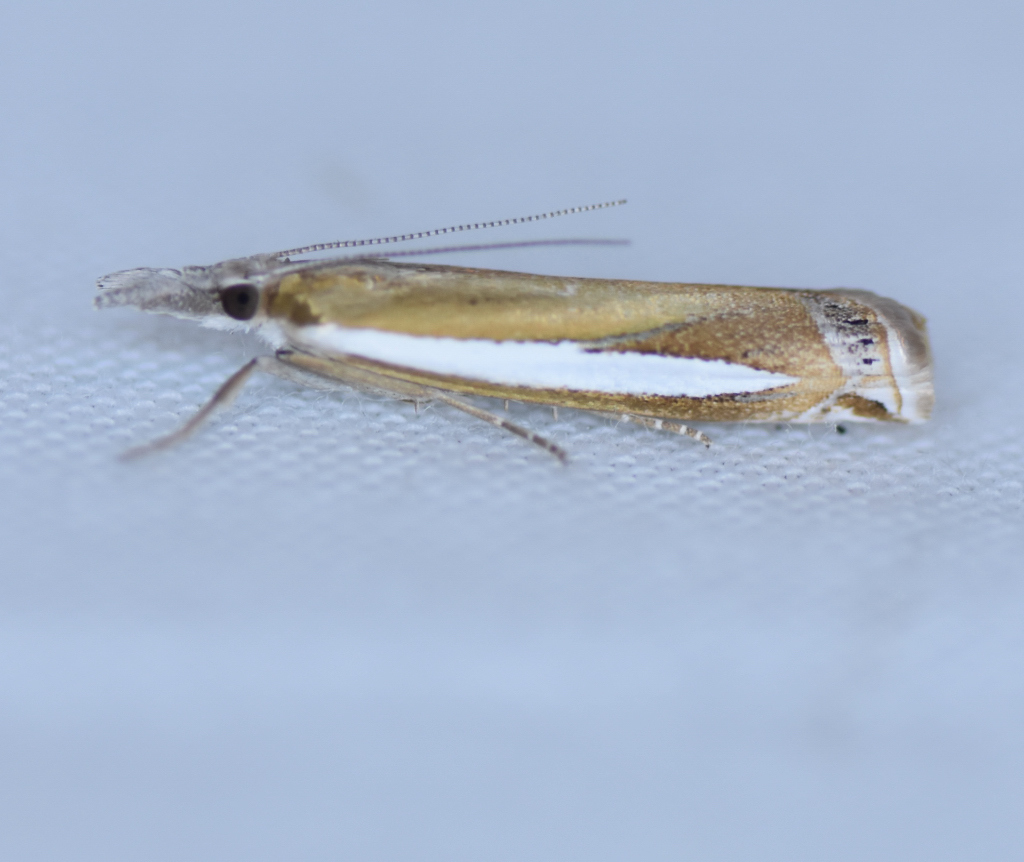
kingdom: Animalia
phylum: Arthropoda
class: Insecta
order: Lepidoptera
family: Crambidae
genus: Crambus
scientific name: Crambus praefectellus
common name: Common grass-veneer
